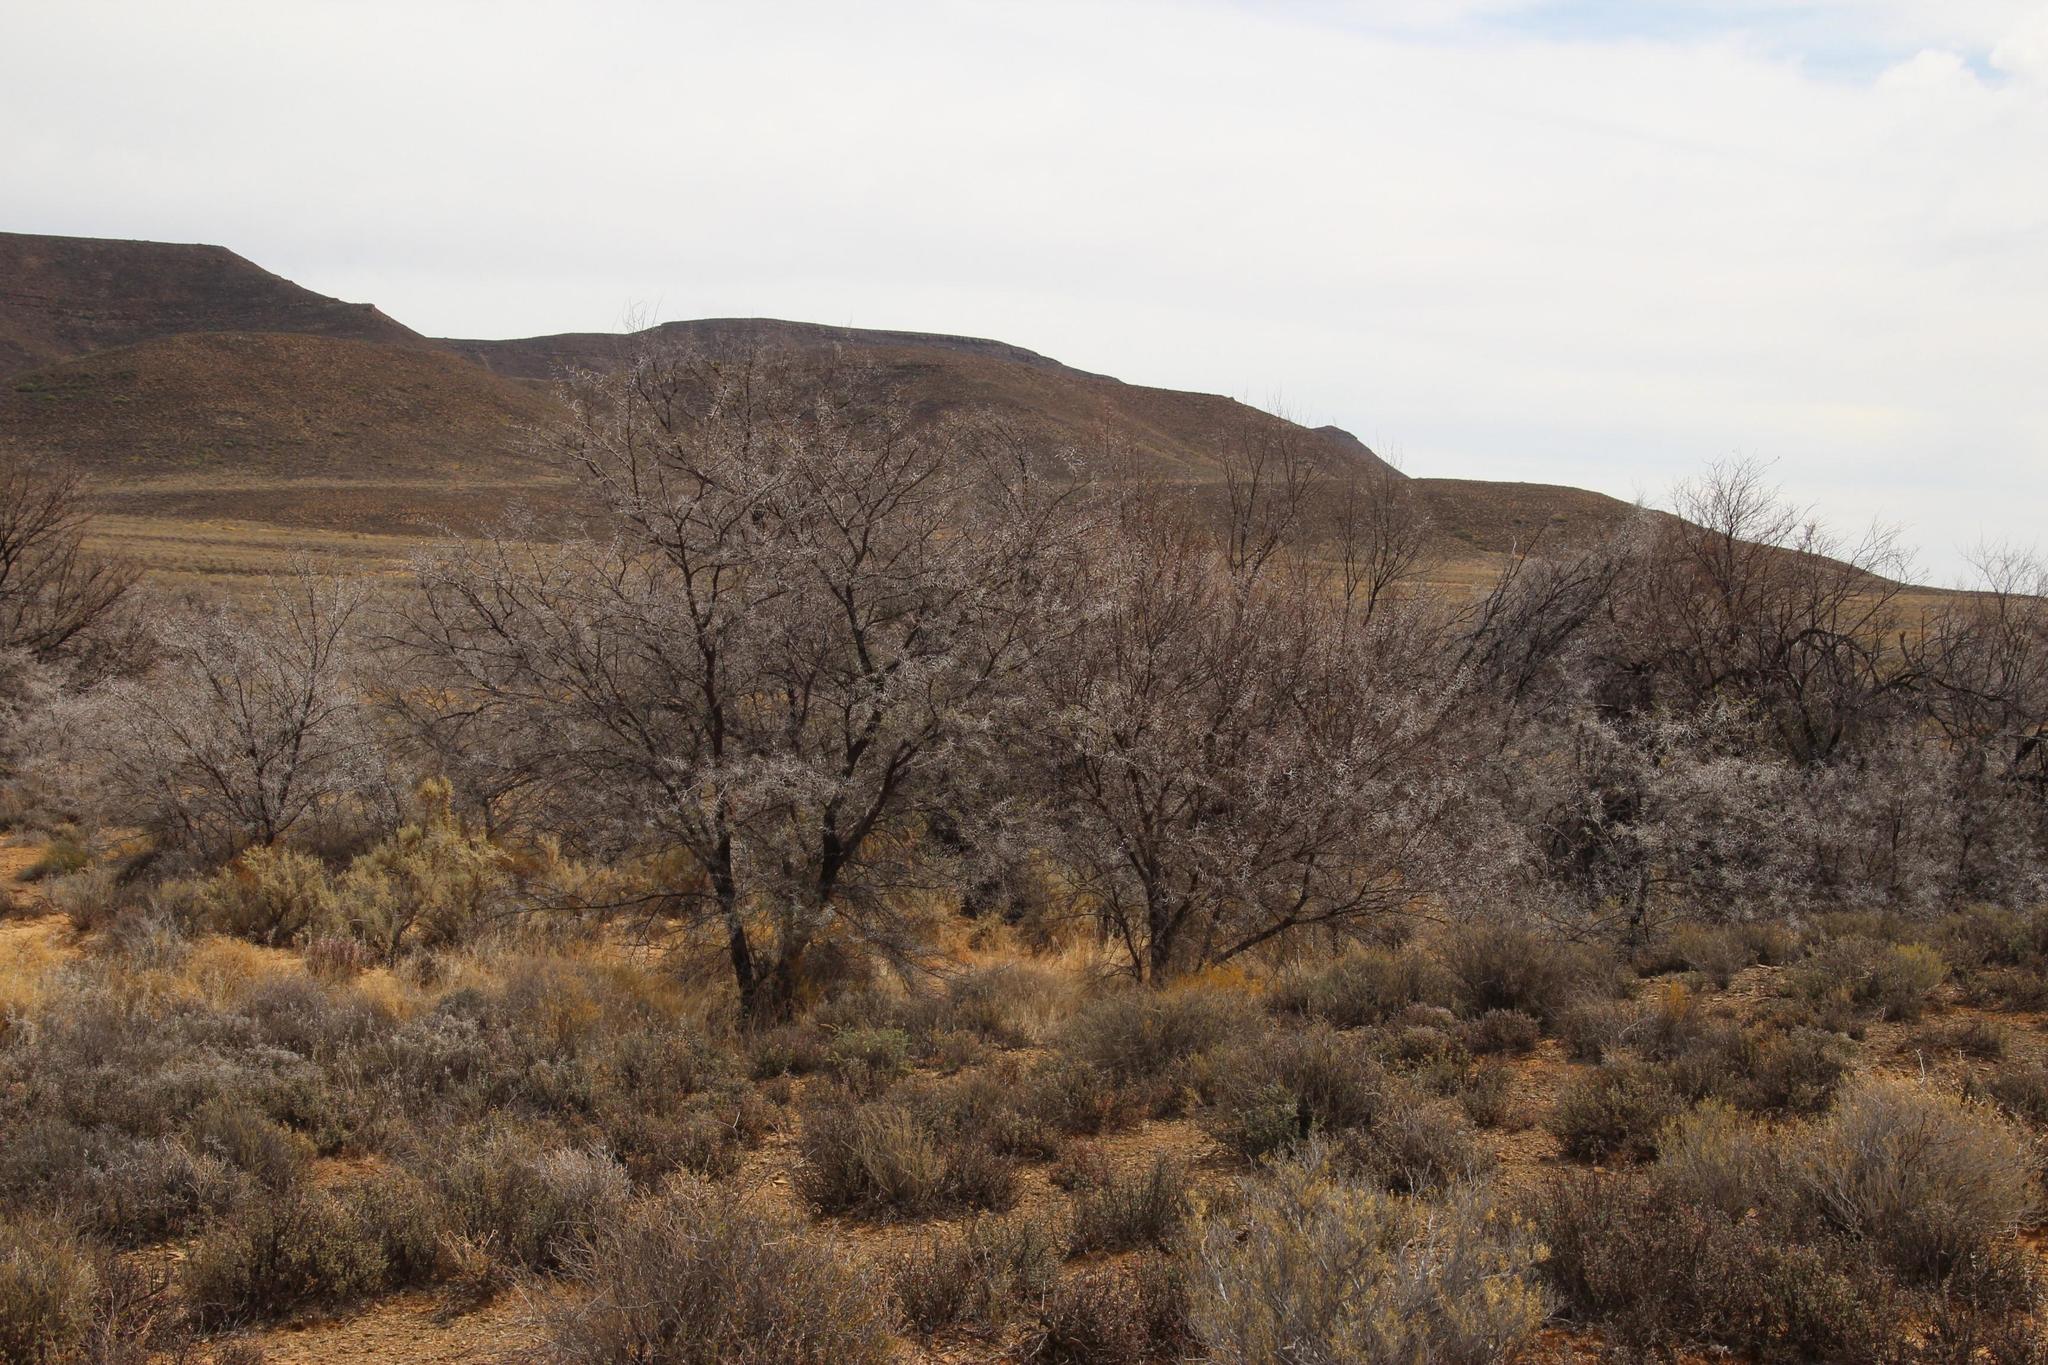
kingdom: Plantae
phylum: Tracheophyta
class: Magnoliopsida
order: Fabales
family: Fabaceae
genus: Vachellia
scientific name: Vachellia karroo
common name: Sweet thorn
